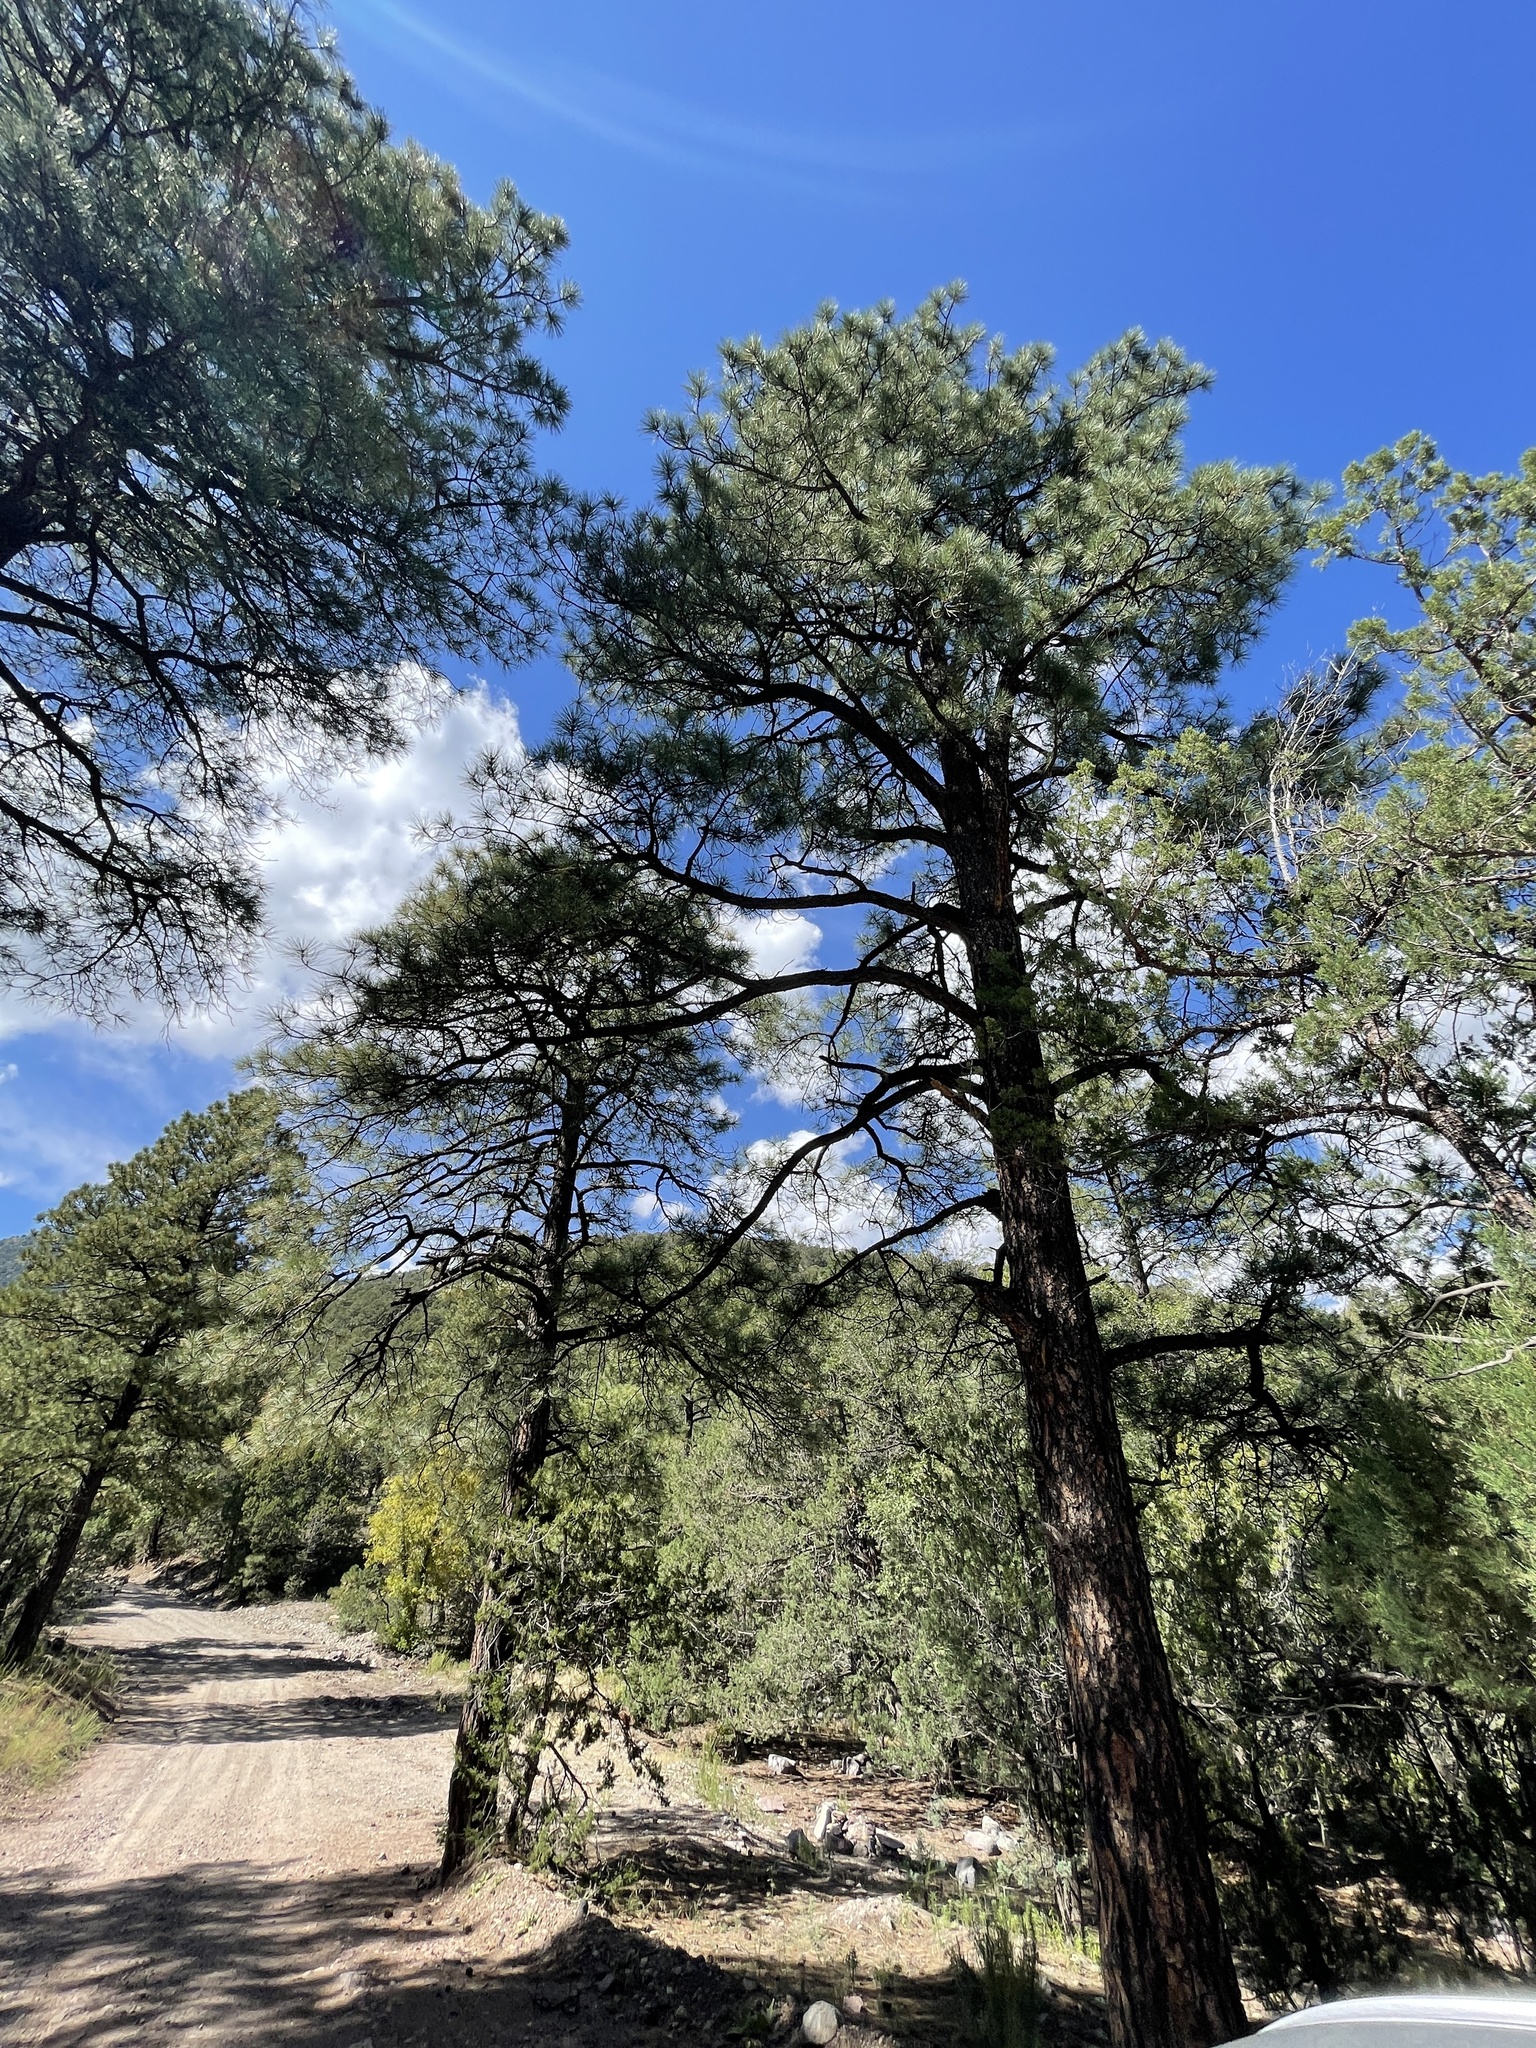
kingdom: Plantae
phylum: Tracheophyta
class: Pinopsida
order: Pinales
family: Pinaceae
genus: Pinus
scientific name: Pinus ponderosa
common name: Western yellow-pine
